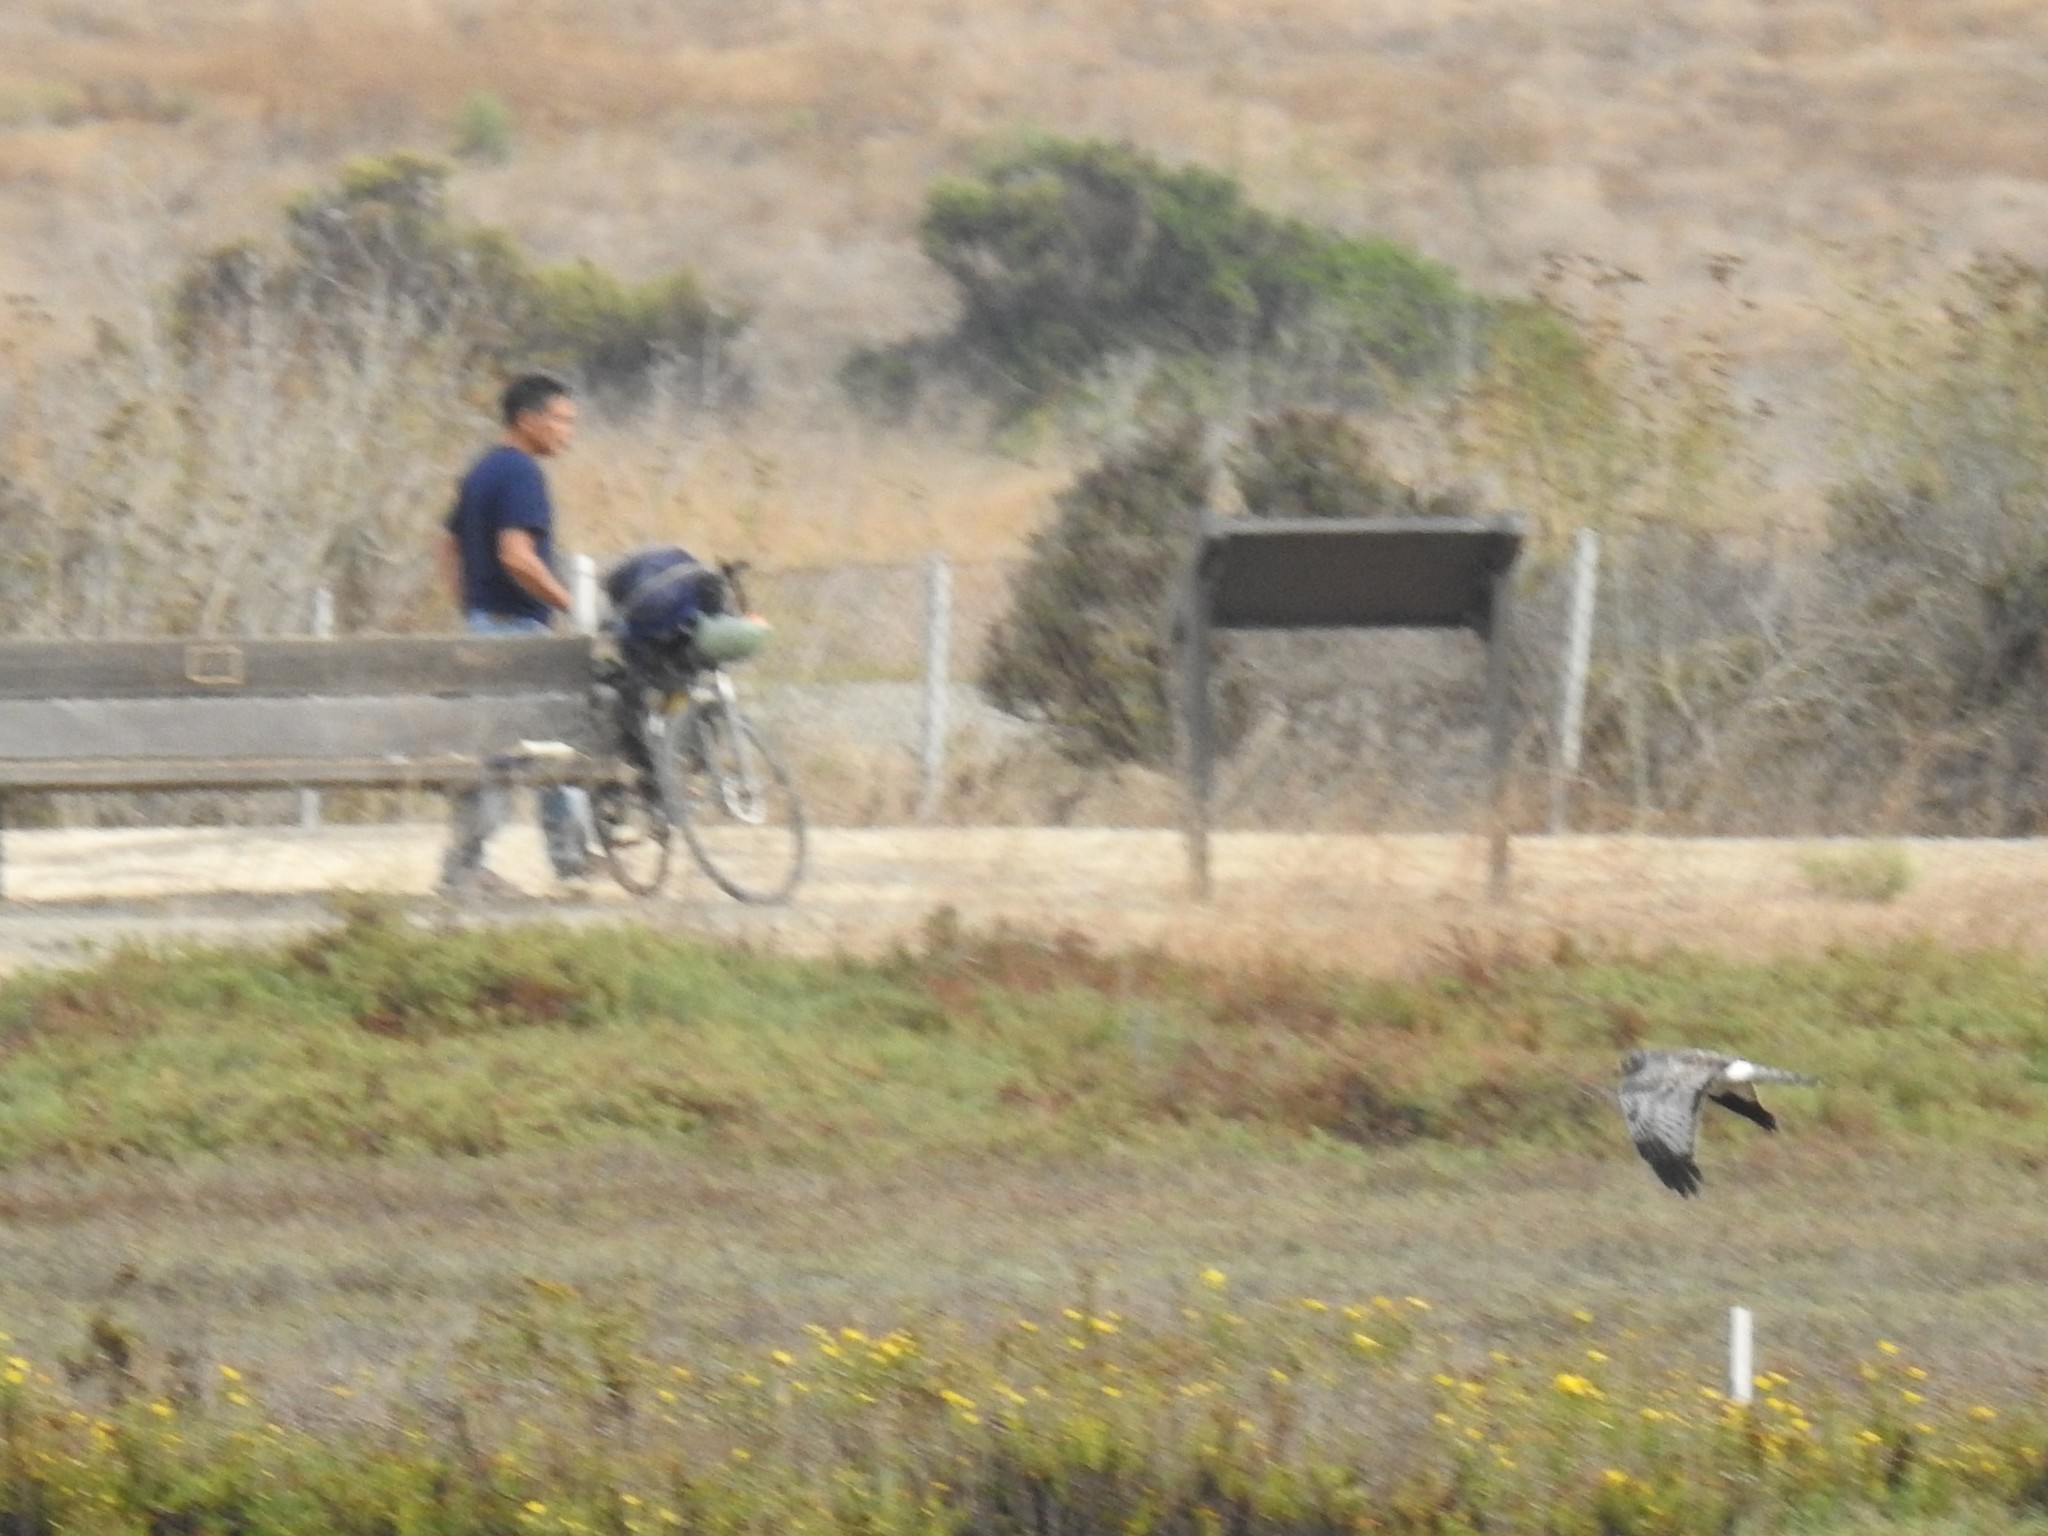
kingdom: Animalia
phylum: Chordata
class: Aves
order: Accipitriformes
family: Accipitridae
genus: Circus
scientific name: Circus cyaneus
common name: Hen harrier
